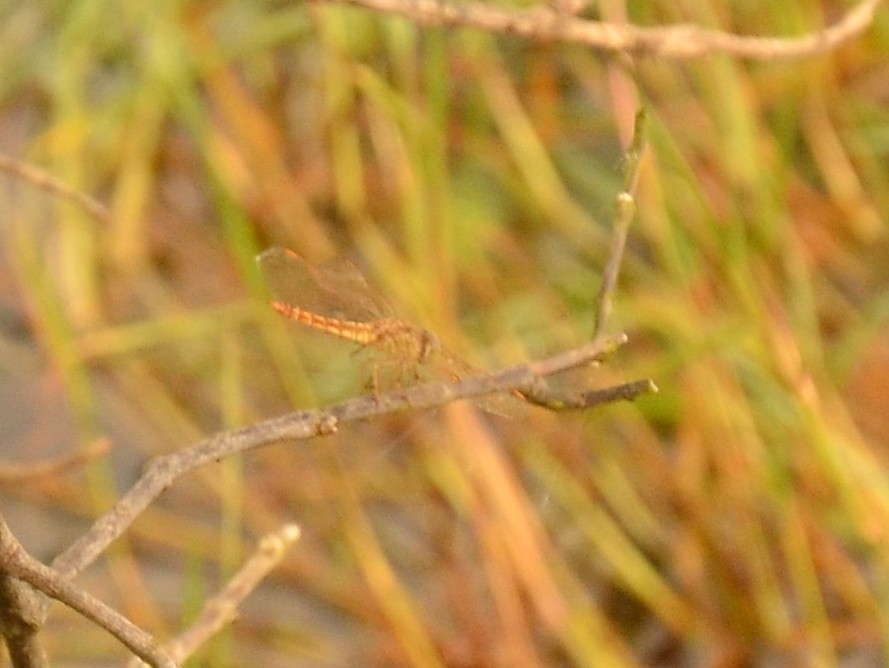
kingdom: Animalia
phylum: Arthropoda
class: Insecta
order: Odonata
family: Libellulidae
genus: Brachythemis
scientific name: Brachythemis contaminata
